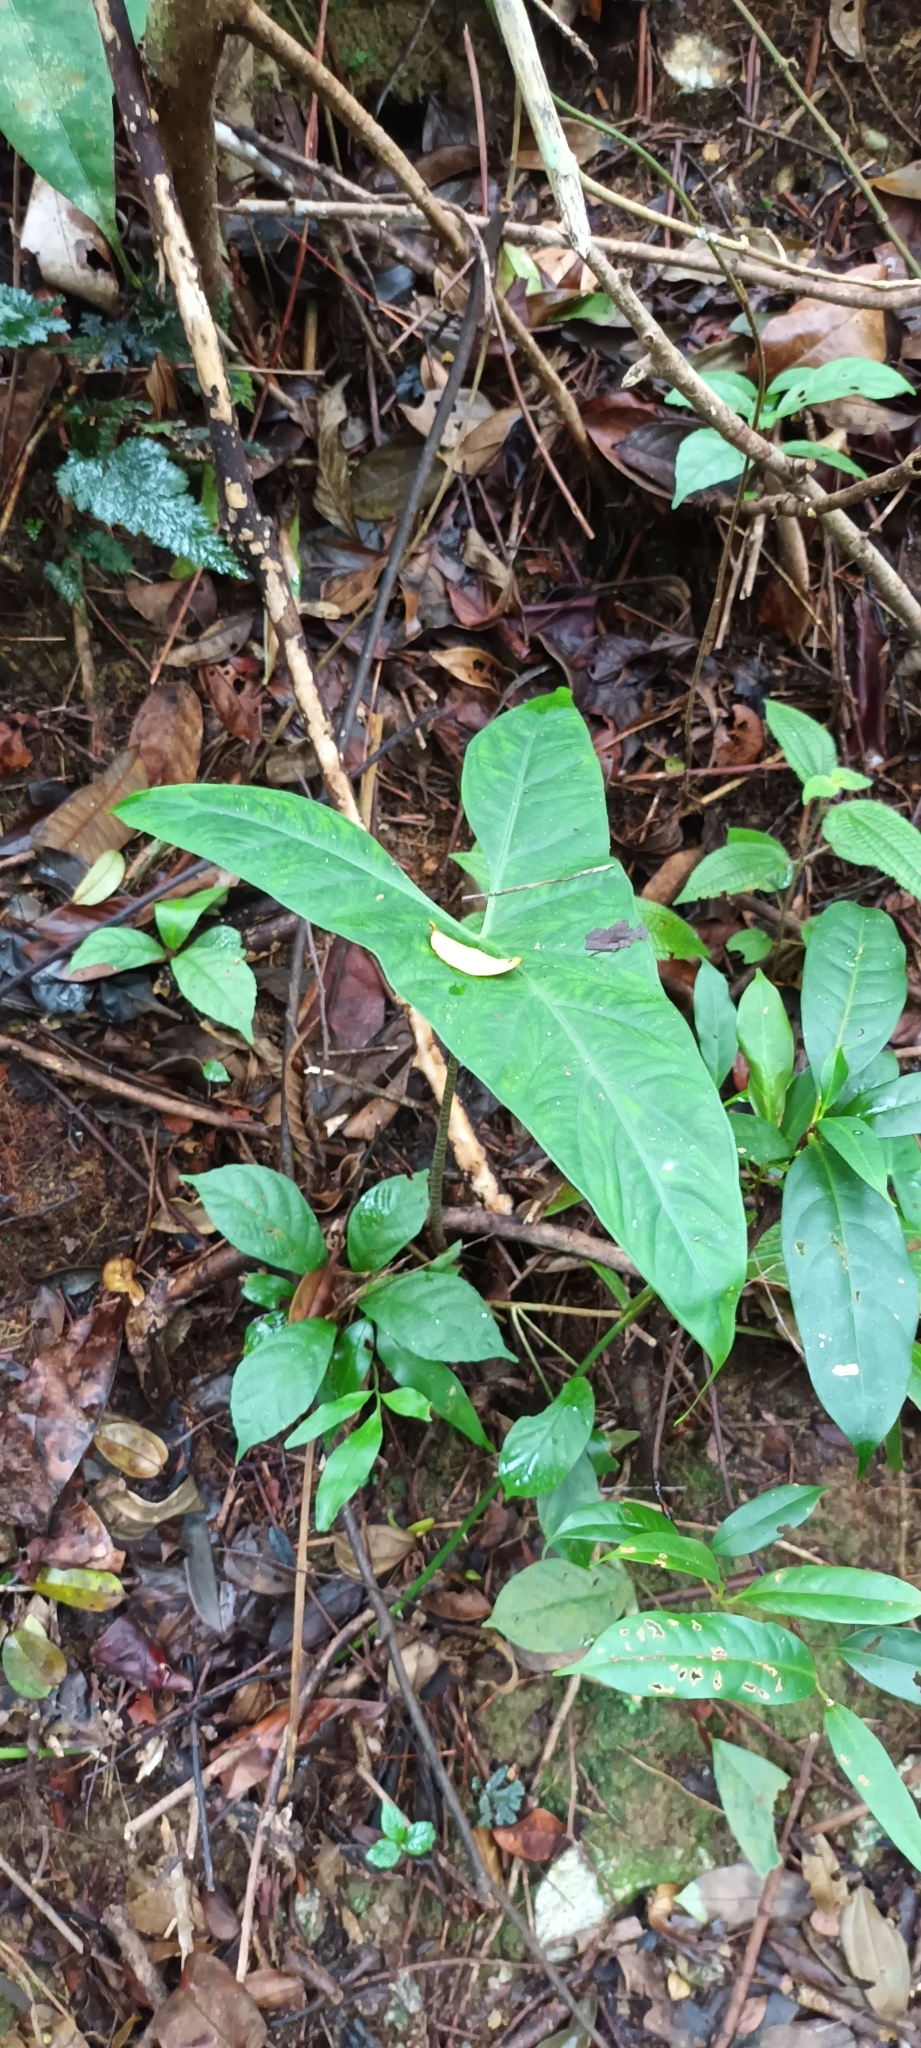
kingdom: Plantae
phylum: Tracheophyta
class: Liliopsida
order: Alismatales
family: Araceae
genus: Alocasia
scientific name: Alocasia longiloba
